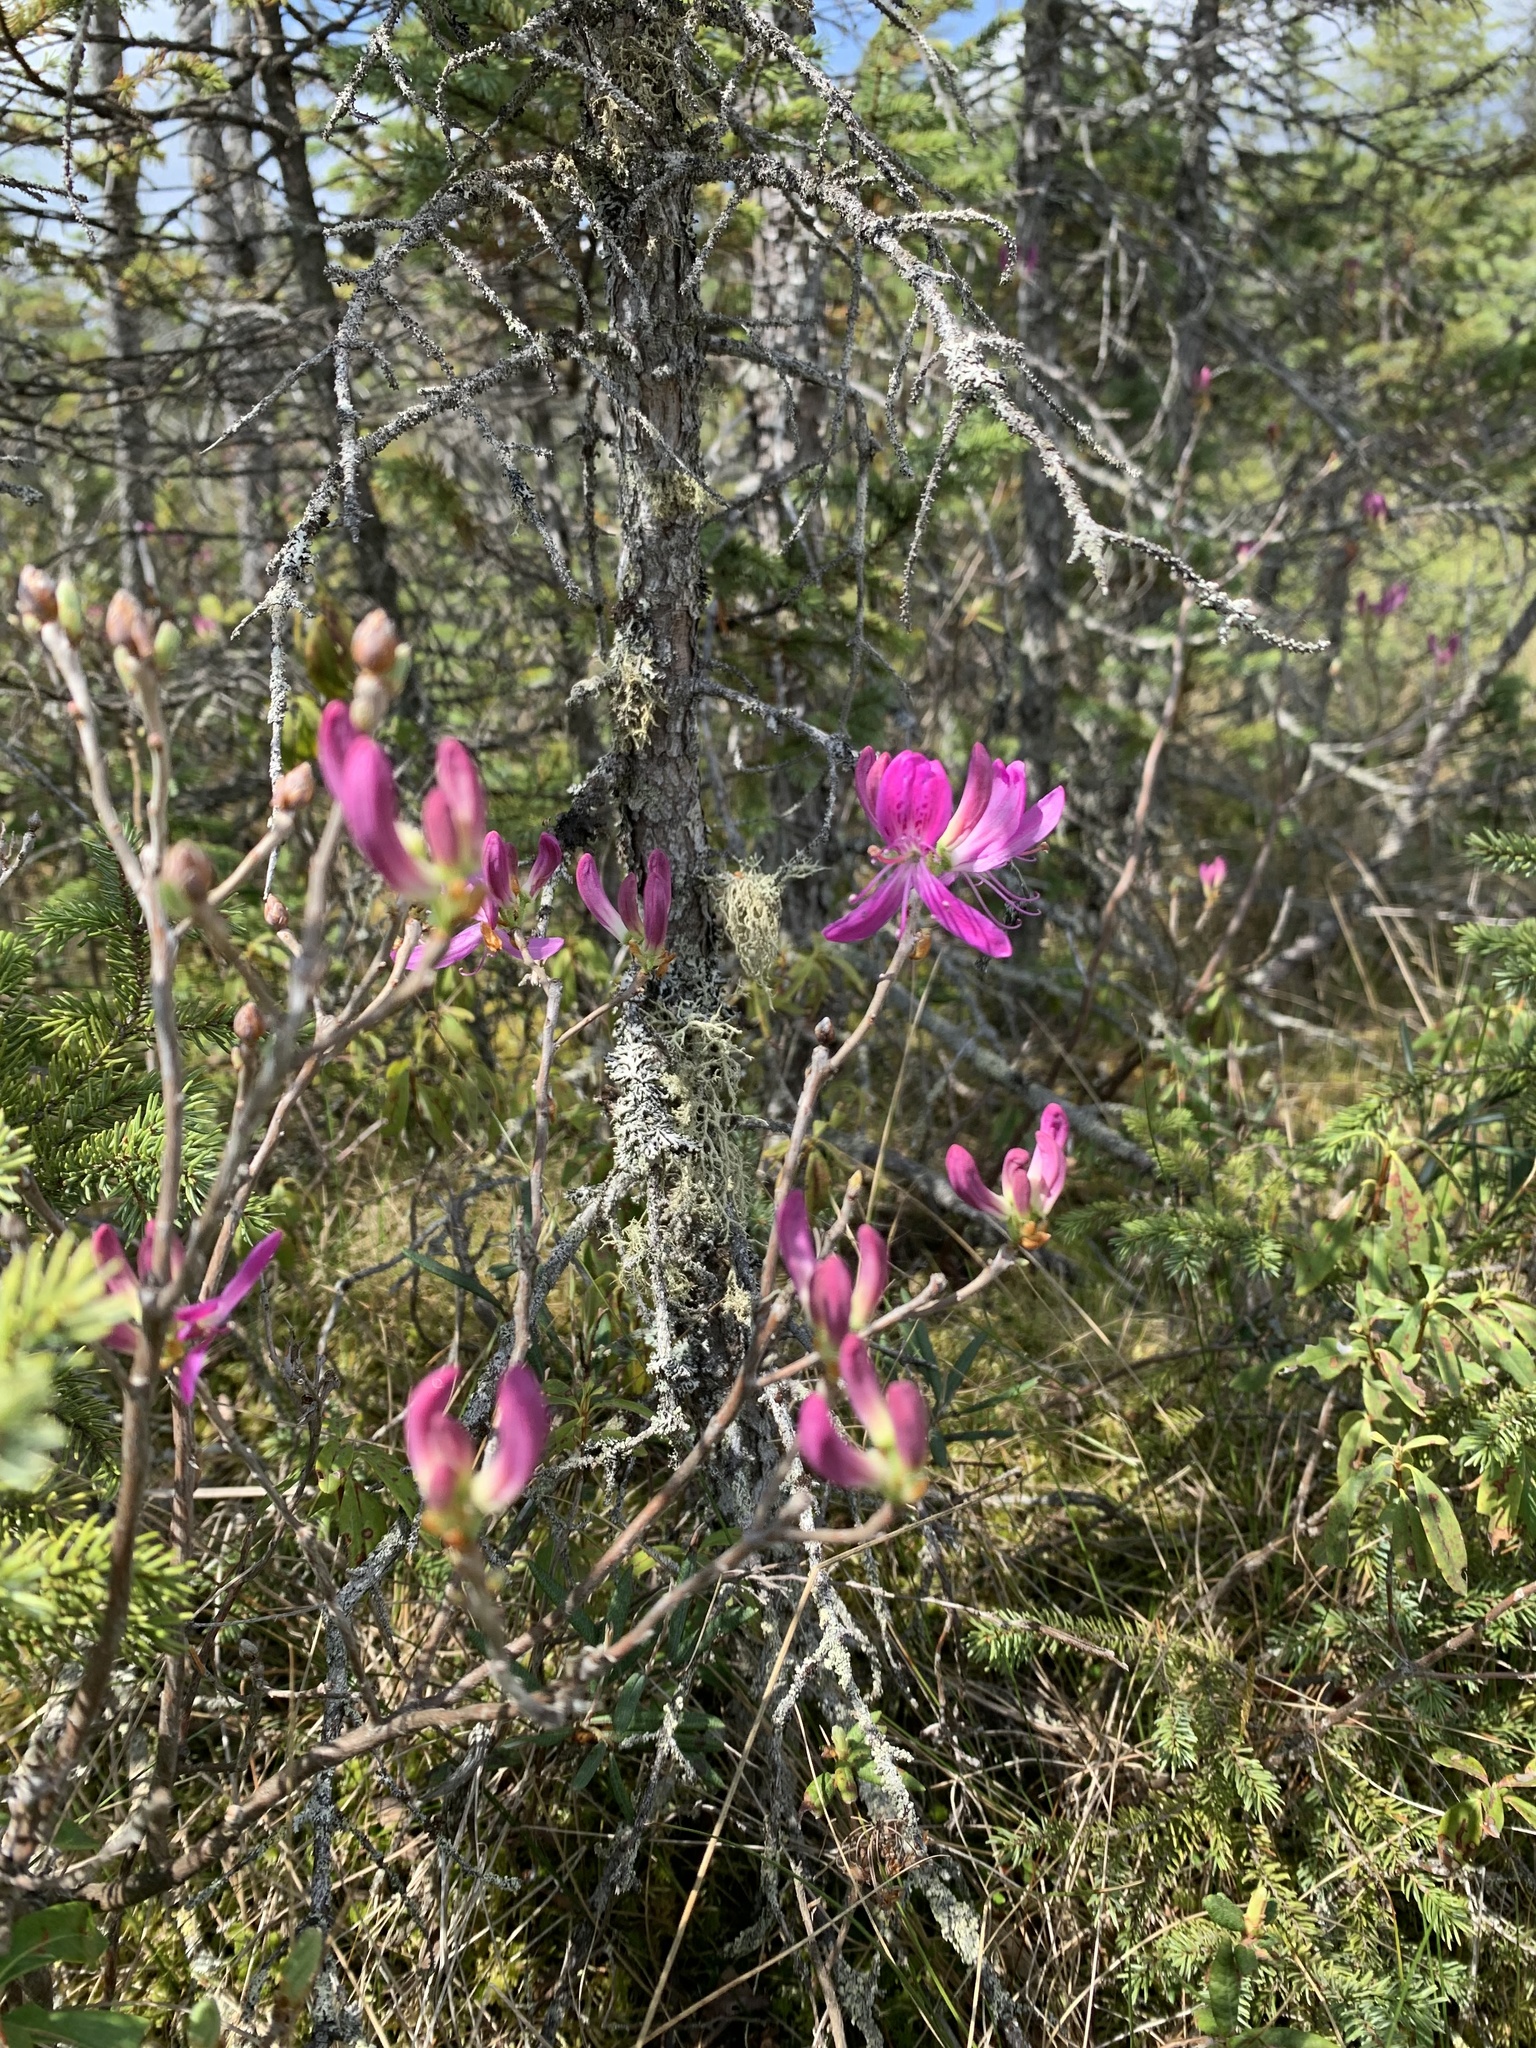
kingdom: Plantae
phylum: Tracheophyta
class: Magnoliopsida
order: Ericales
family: Ericaceae
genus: Rhododendron
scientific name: Rhododendron canadense
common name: Rhodora
